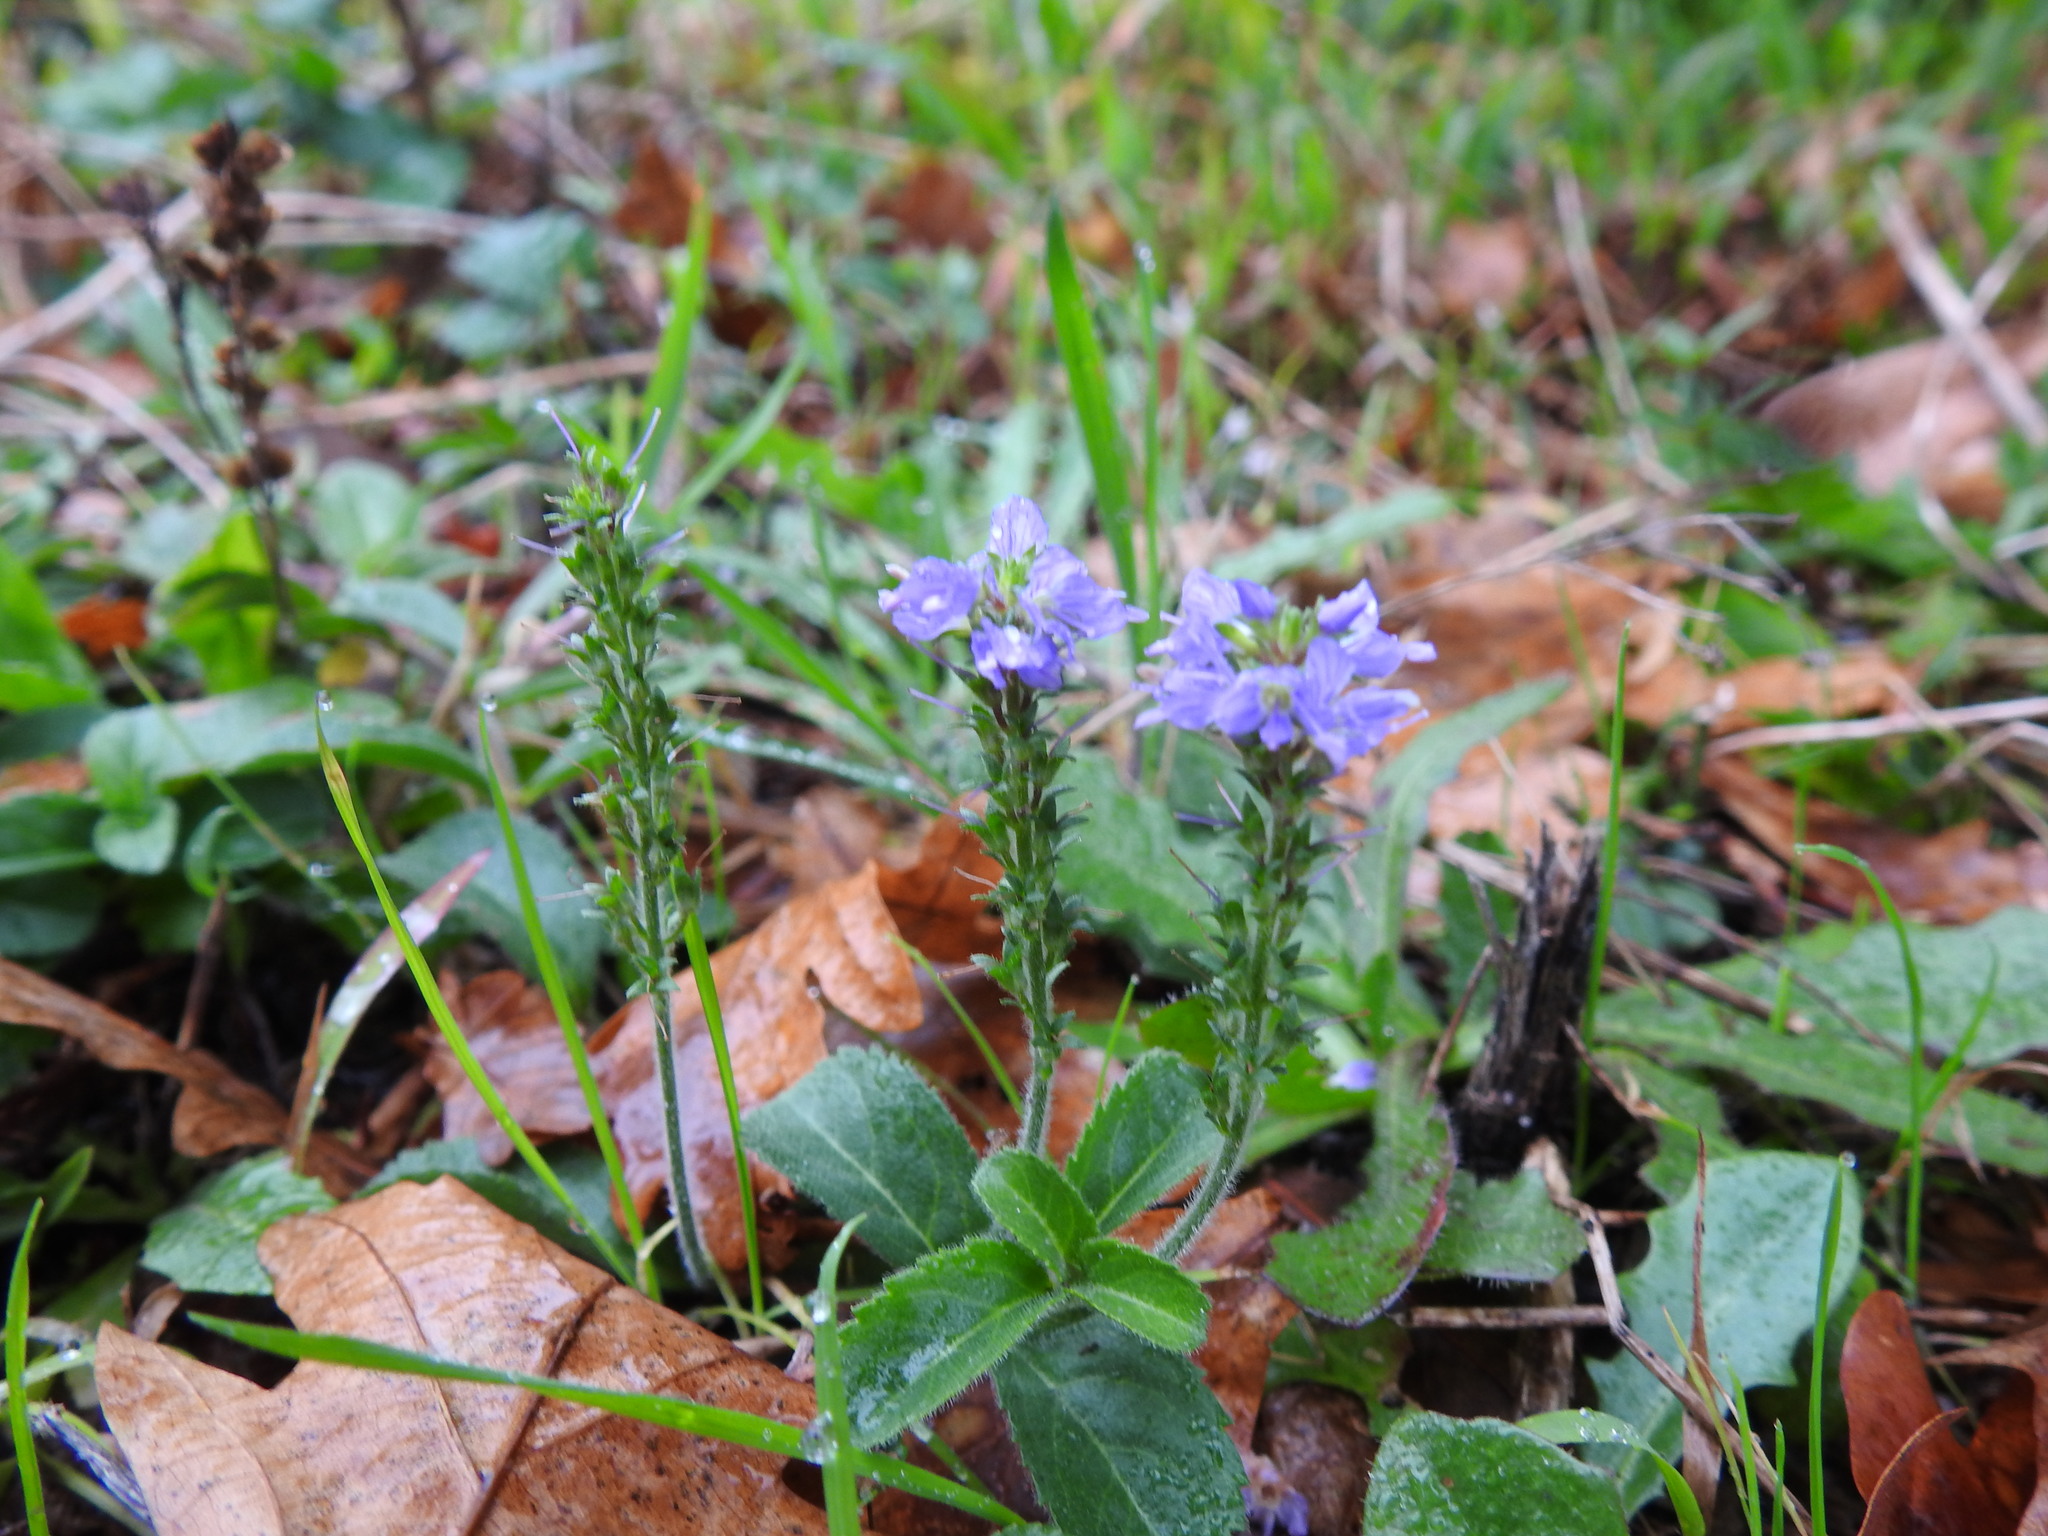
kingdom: Plantae
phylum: Tracheophyta
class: Magnoliopsida
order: Lamiales
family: Plantaginaceae
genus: Veronica
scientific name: Veronica officinalis
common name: Common speedwell
